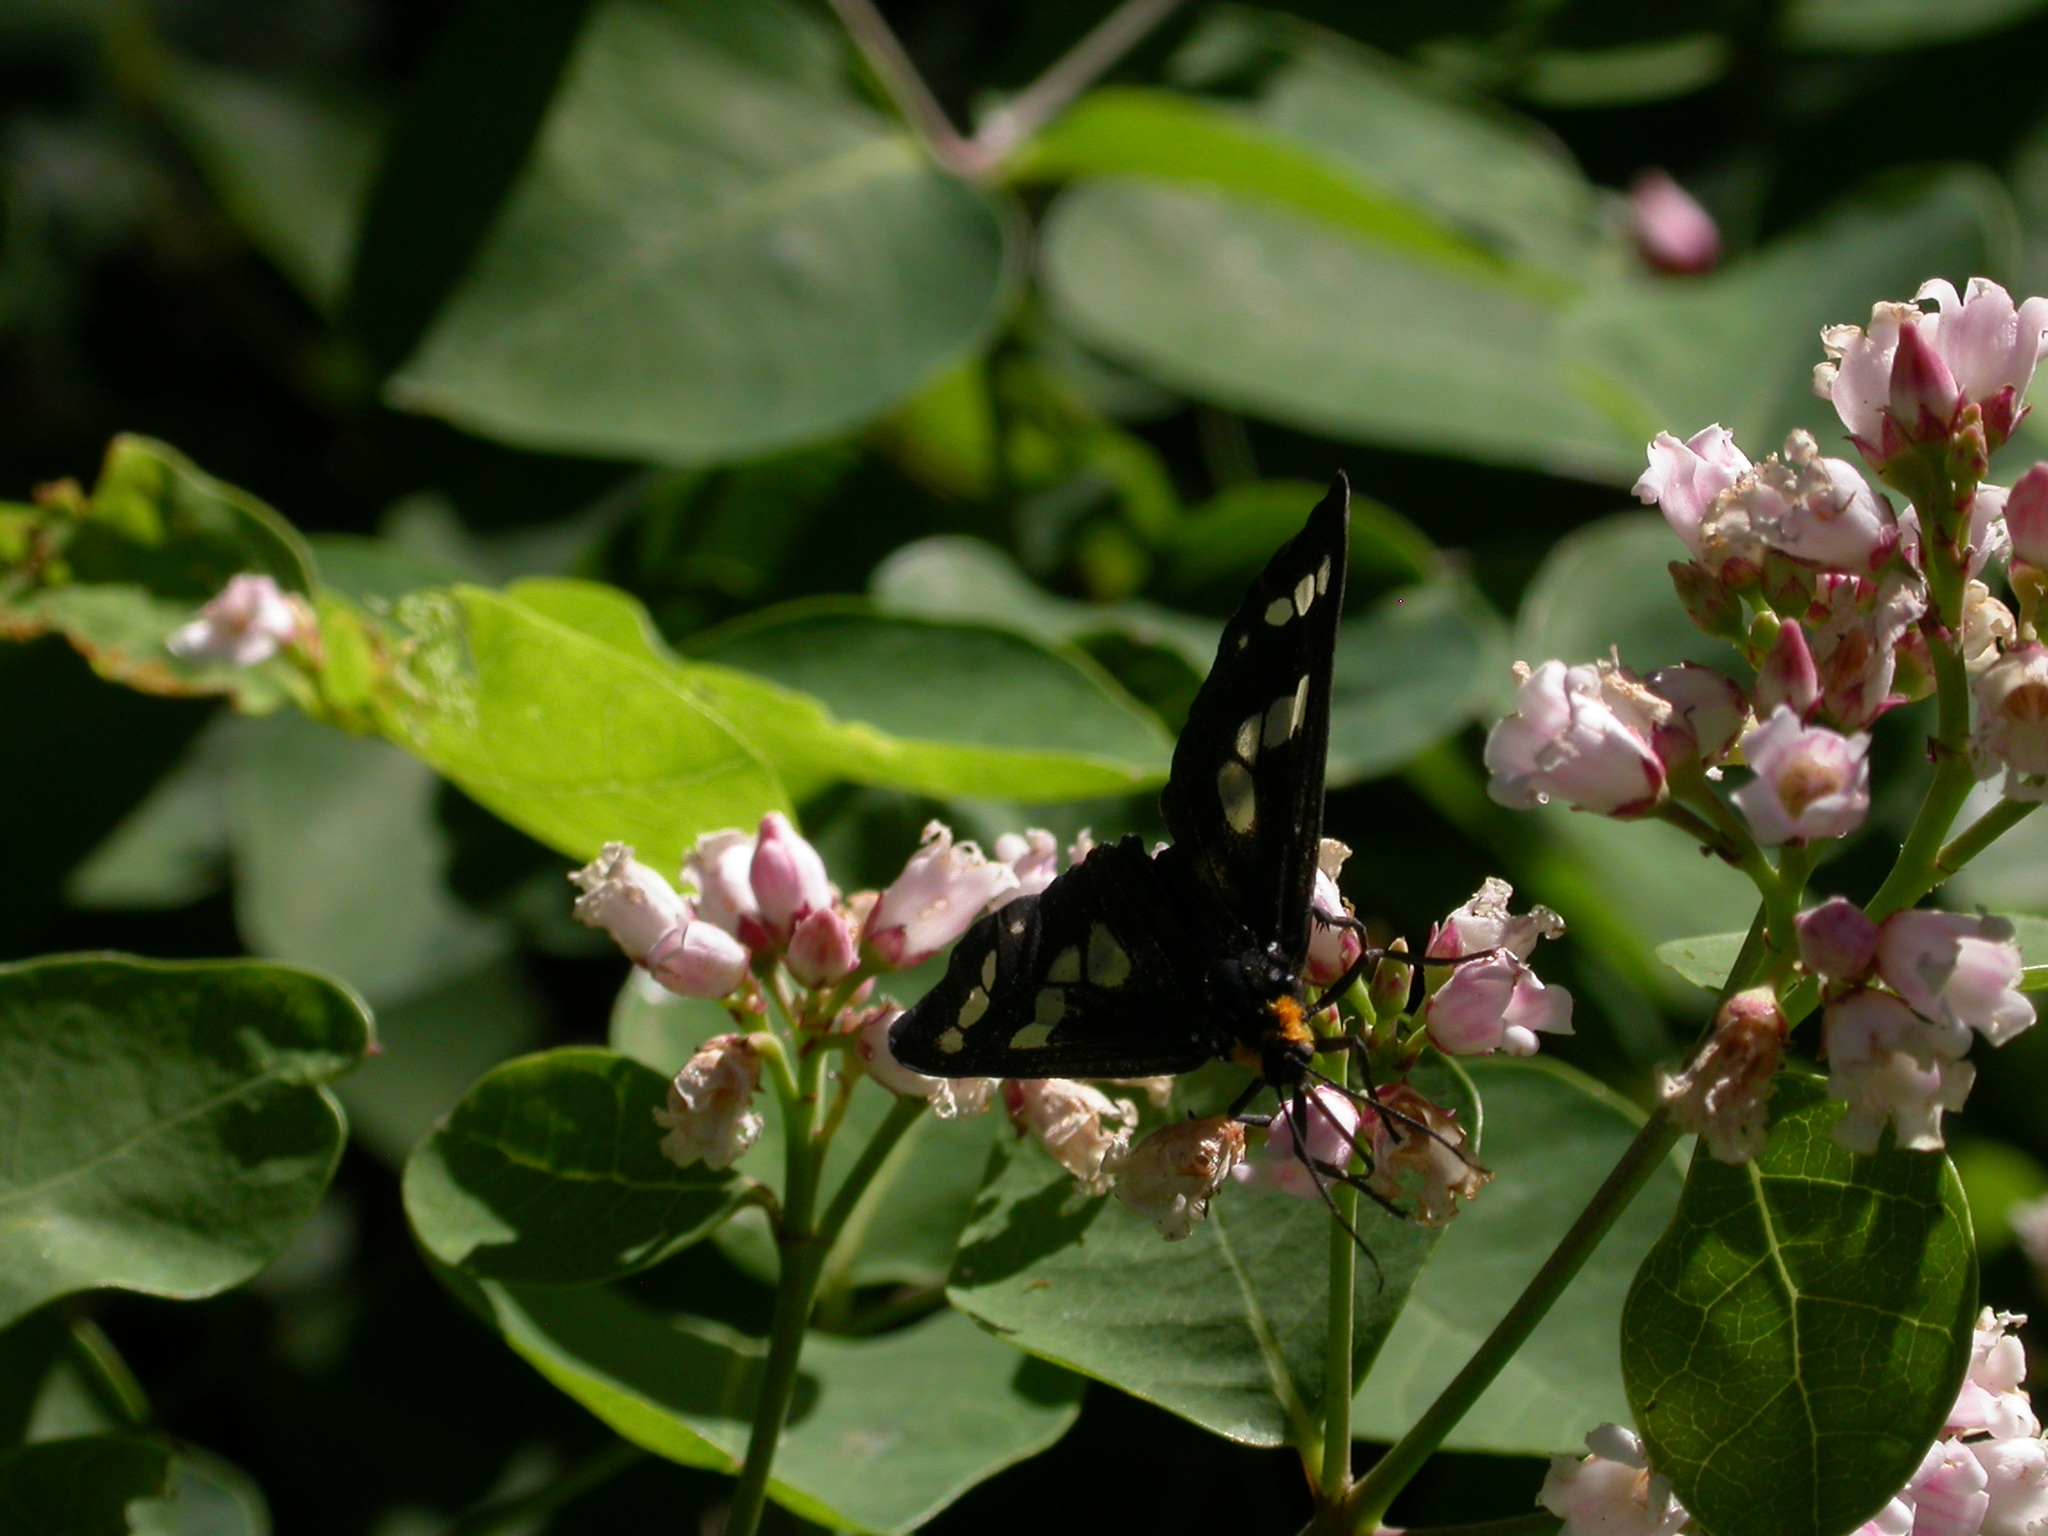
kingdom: Animalia
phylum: Arthropoda
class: Insecta
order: Lepidoptera
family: Erebidae
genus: Gnophaela
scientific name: Gnophaela latipennis
